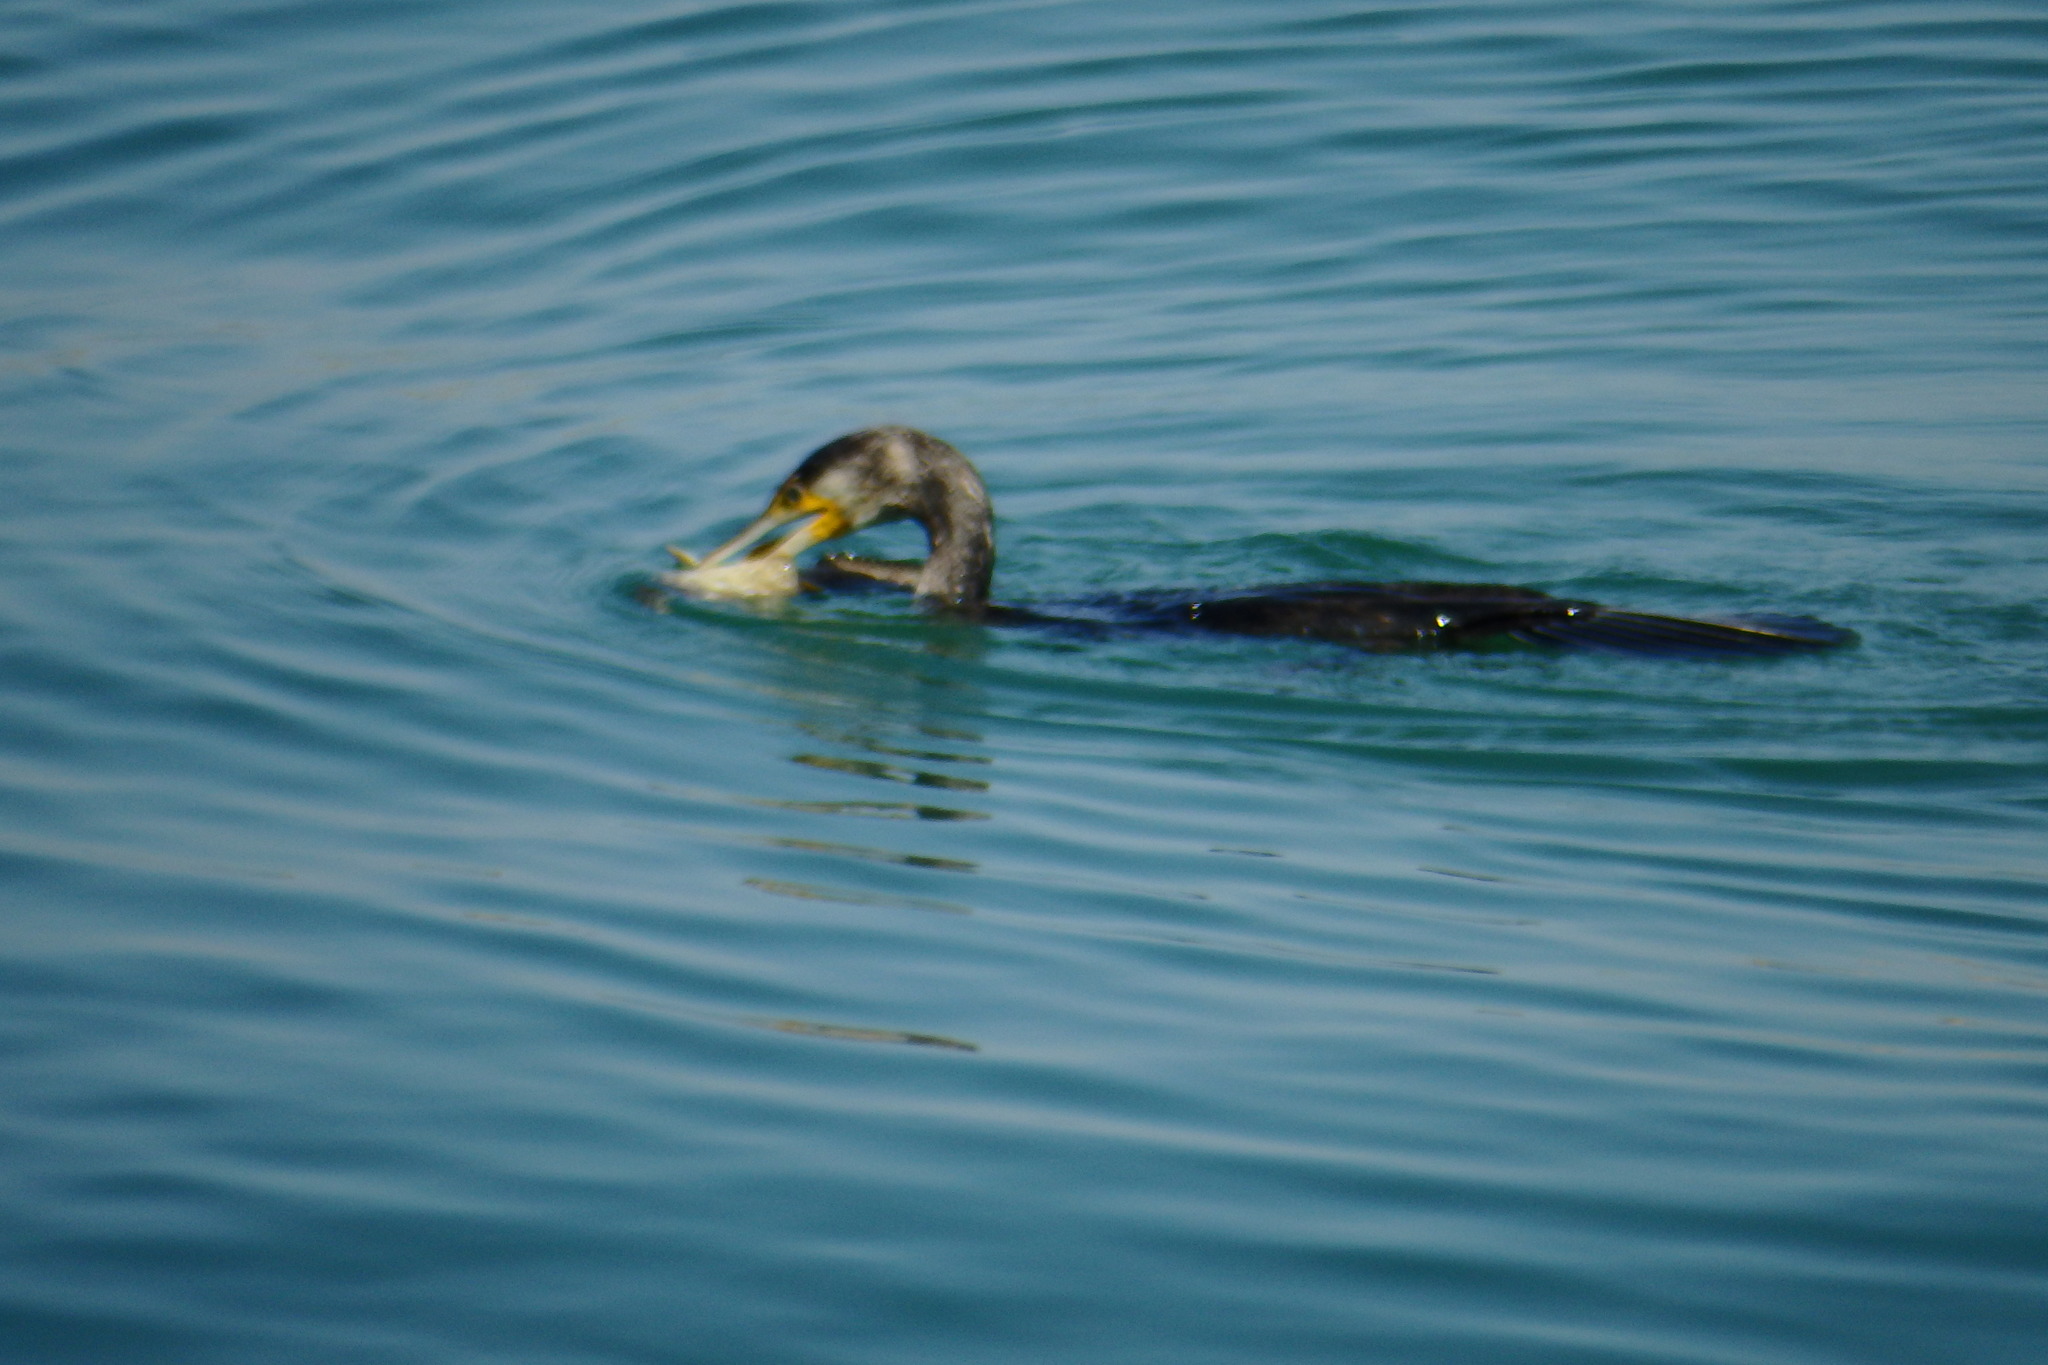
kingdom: Animalia
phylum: Chordata
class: Aves
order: Suliformes
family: Phalacrocoracidae
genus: Phalacrocorax
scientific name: Phalacrocorax carbo
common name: Great cormorant
